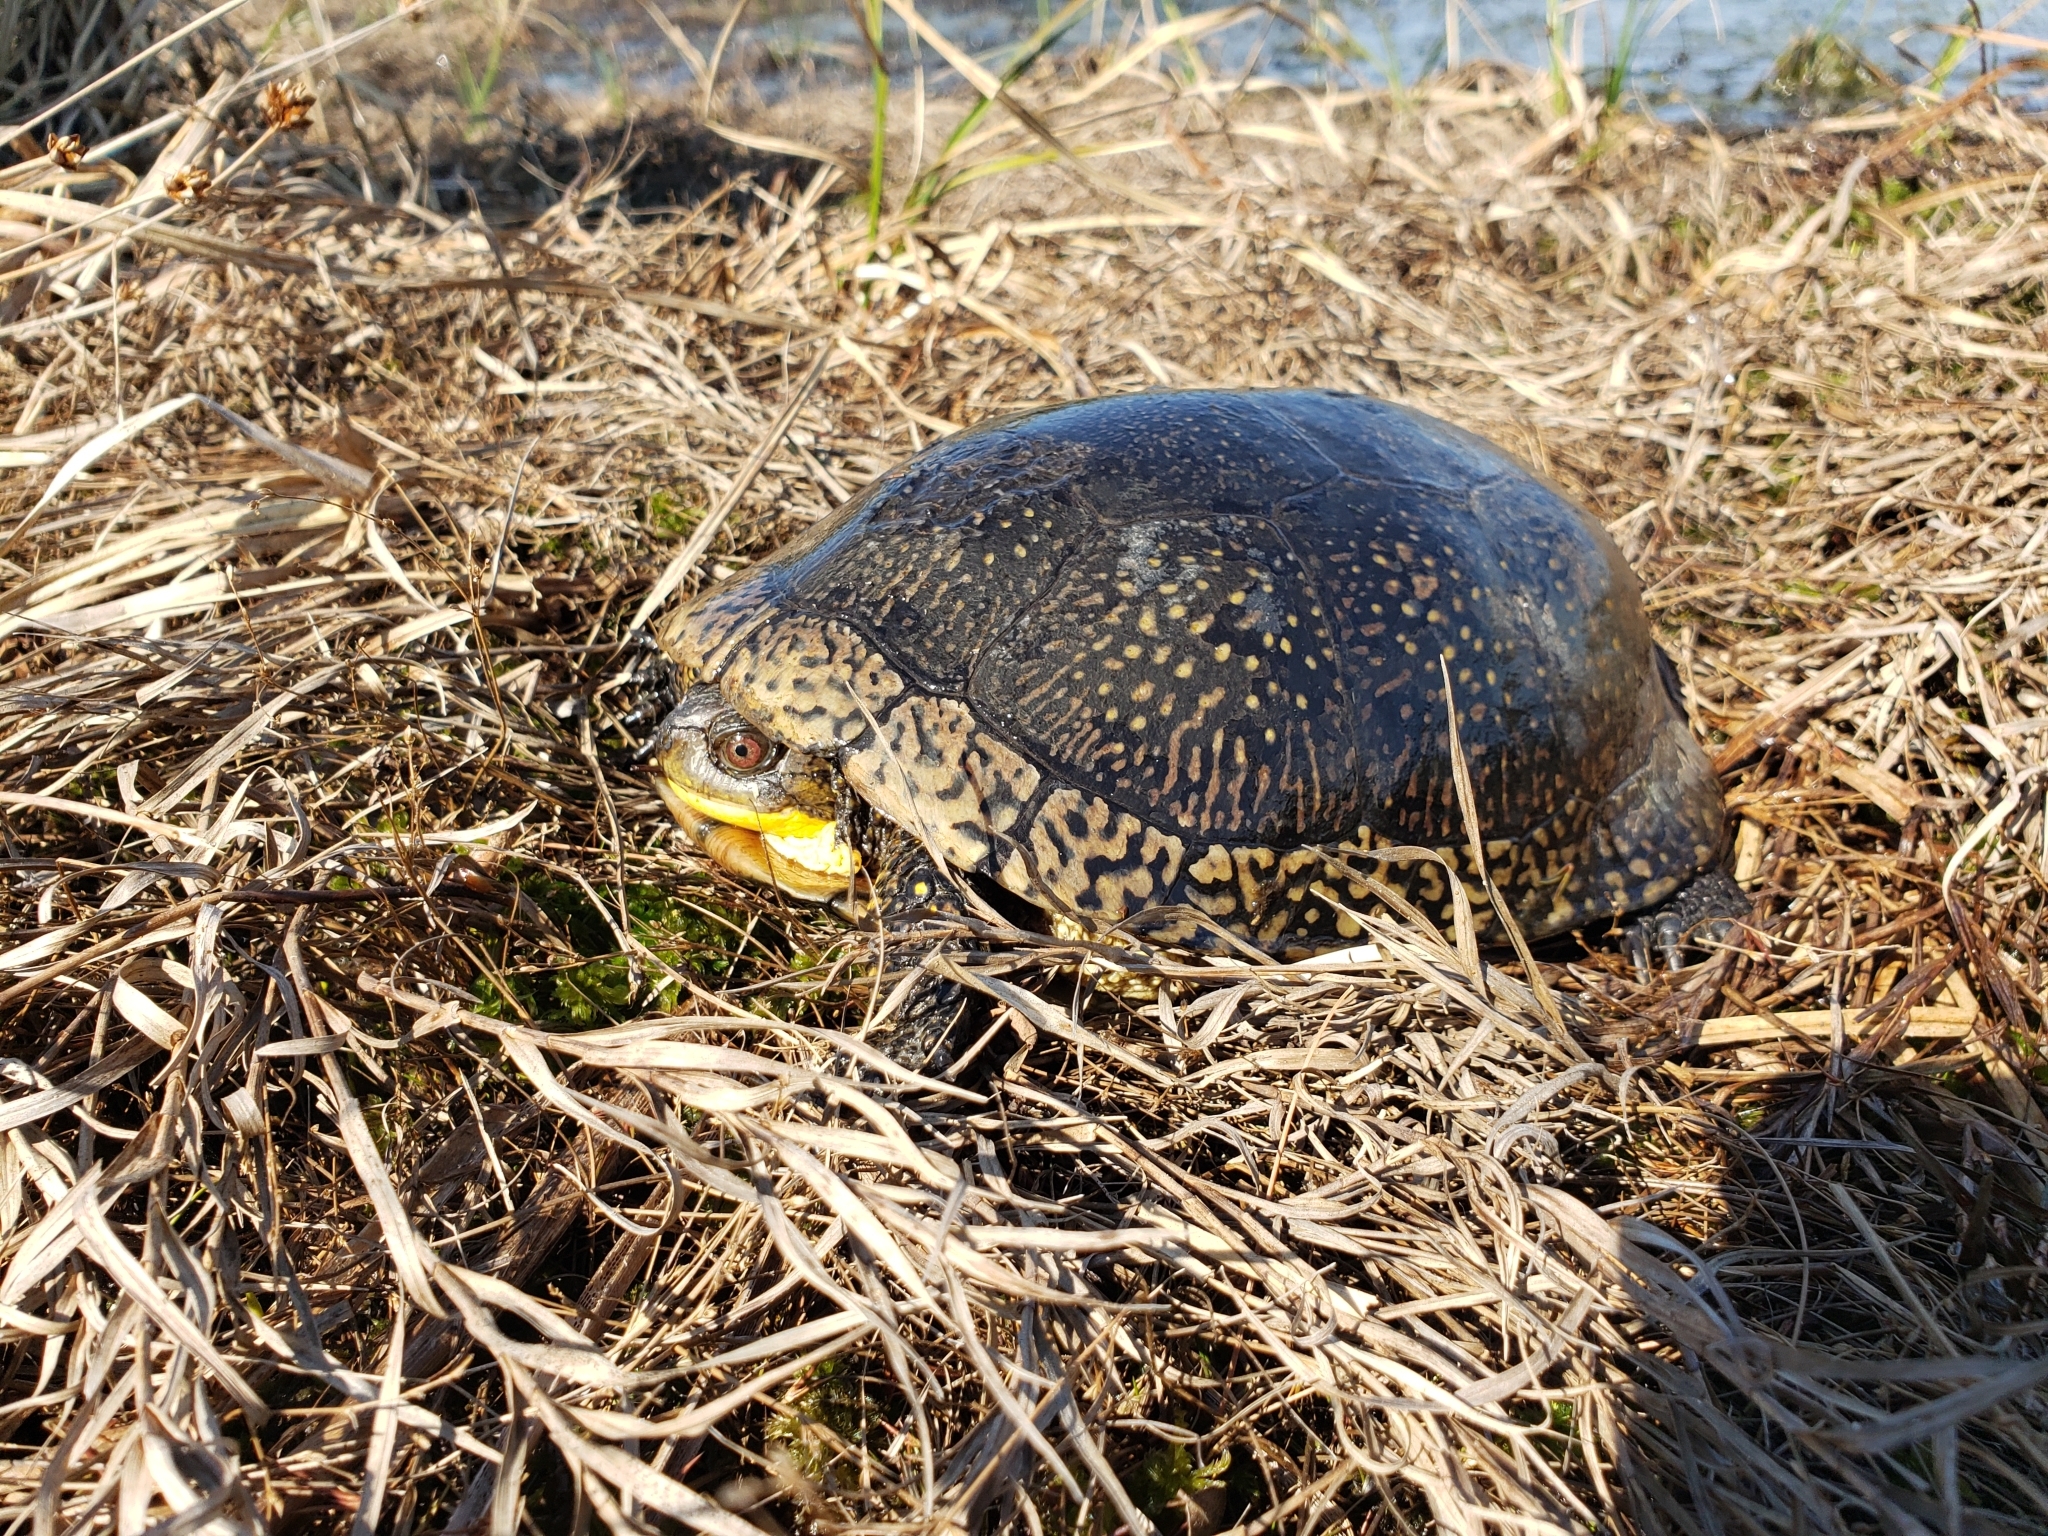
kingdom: Animalia
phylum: Chordata
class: Testudines
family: Emydidae
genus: Emys
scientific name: Emys blandingii
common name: Blanding's turtle
